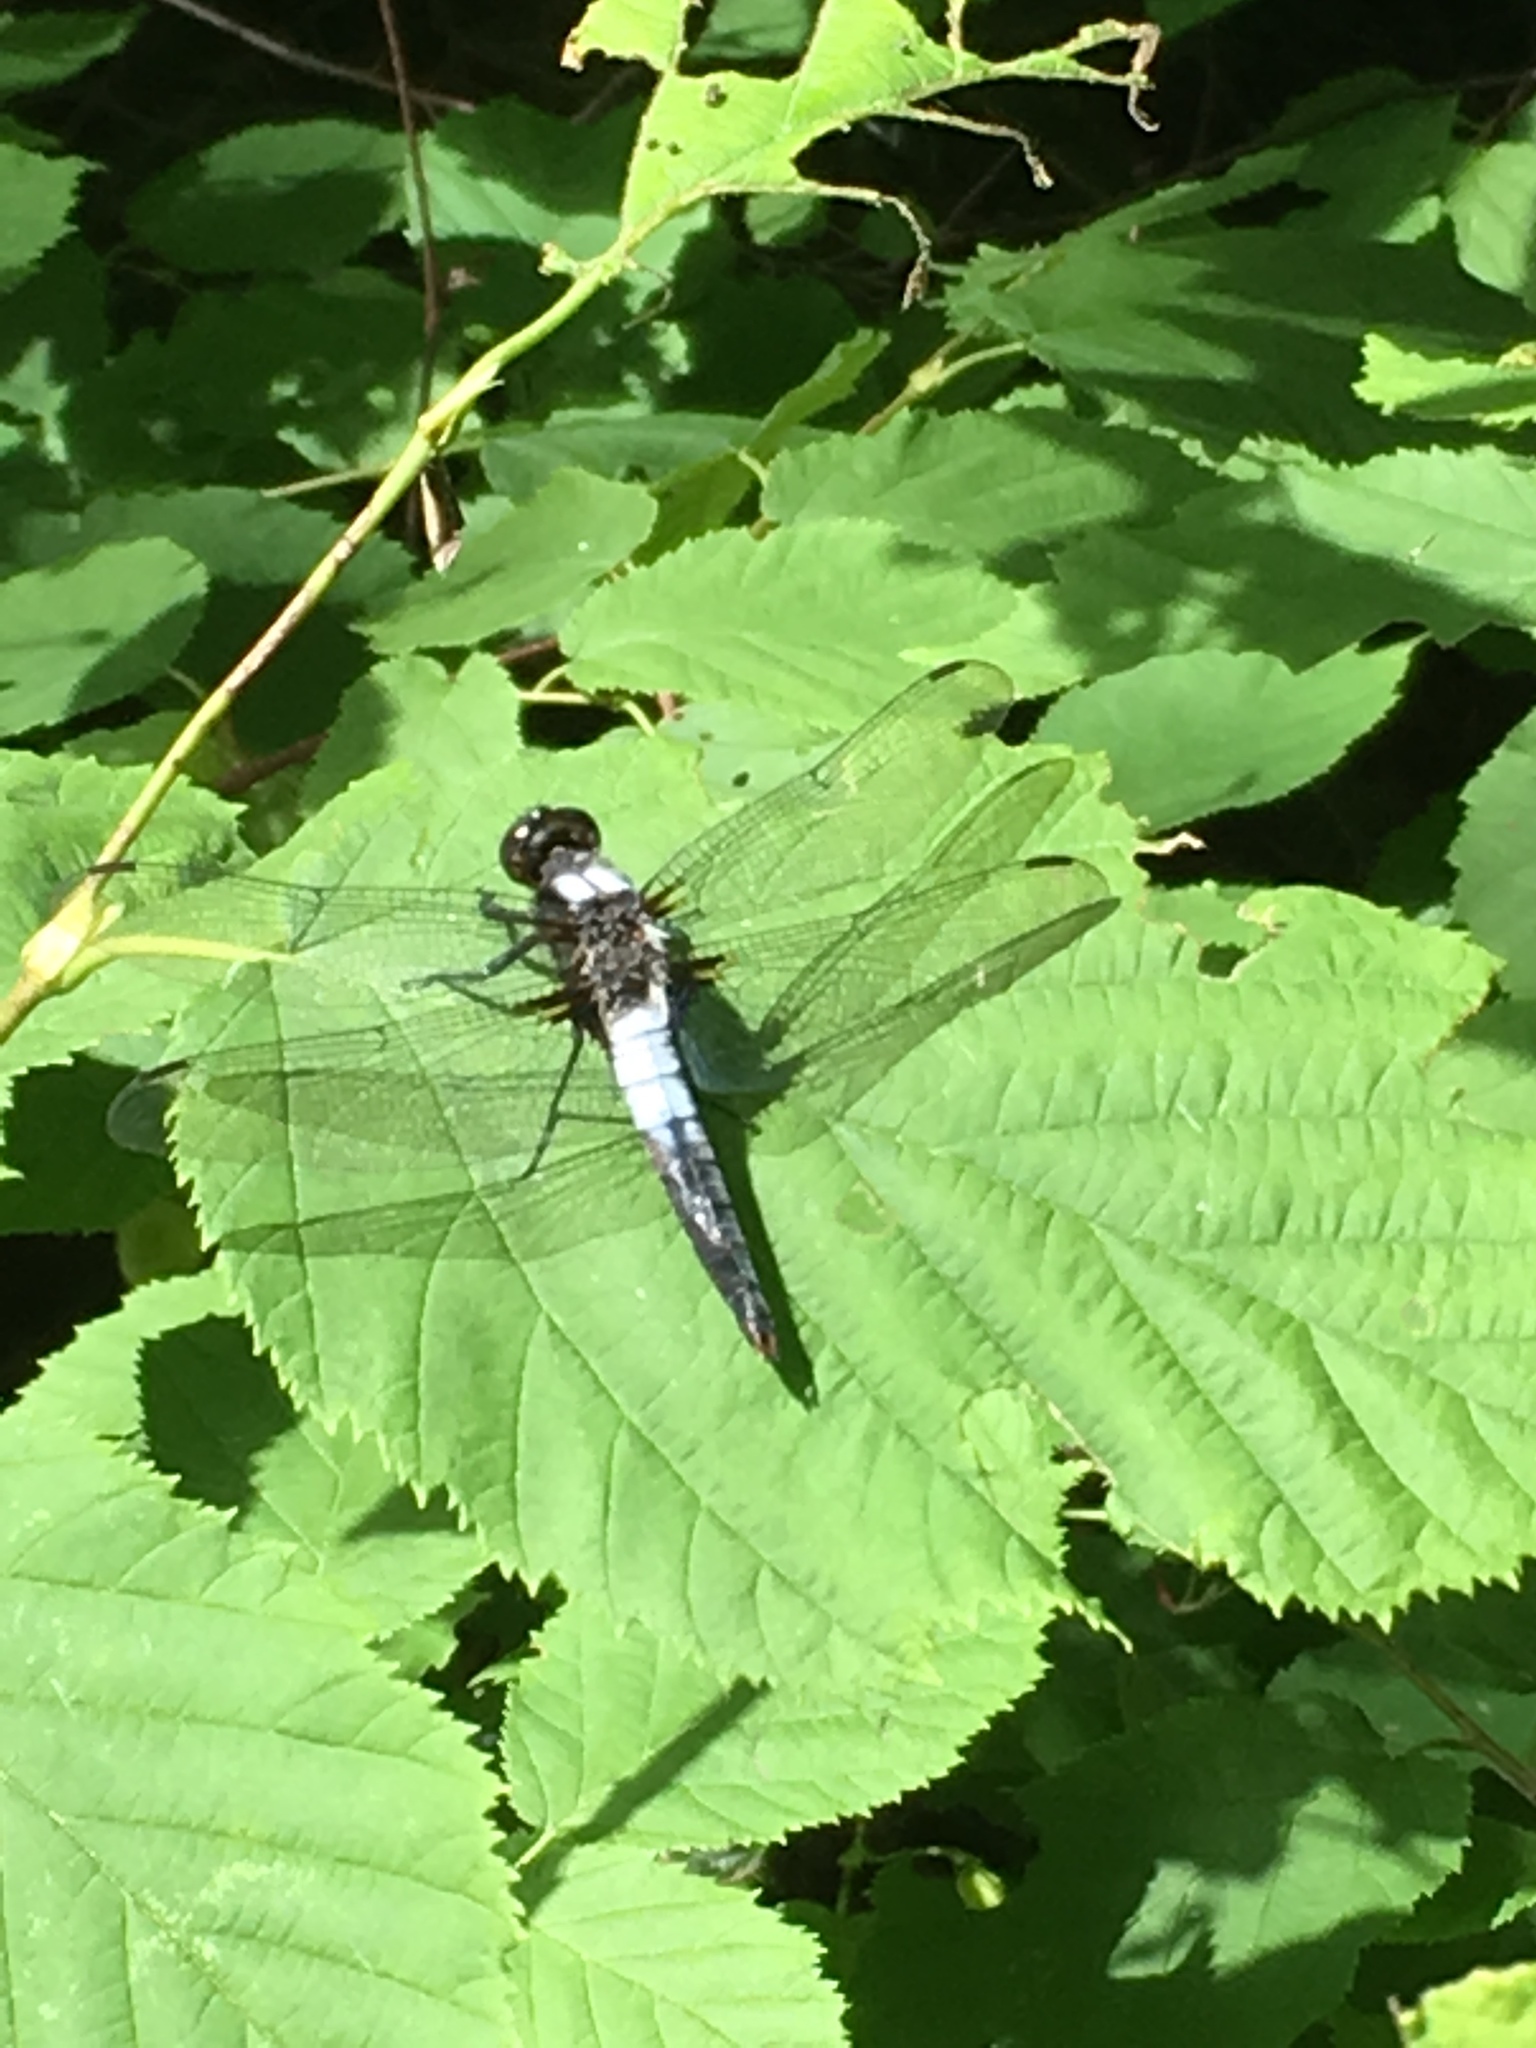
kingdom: Animalia
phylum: Arthropoda
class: Insecta
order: Odonata
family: Libellulidae
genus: Ladona
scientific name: Ladona julia
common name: Chalk-fronted corporal
